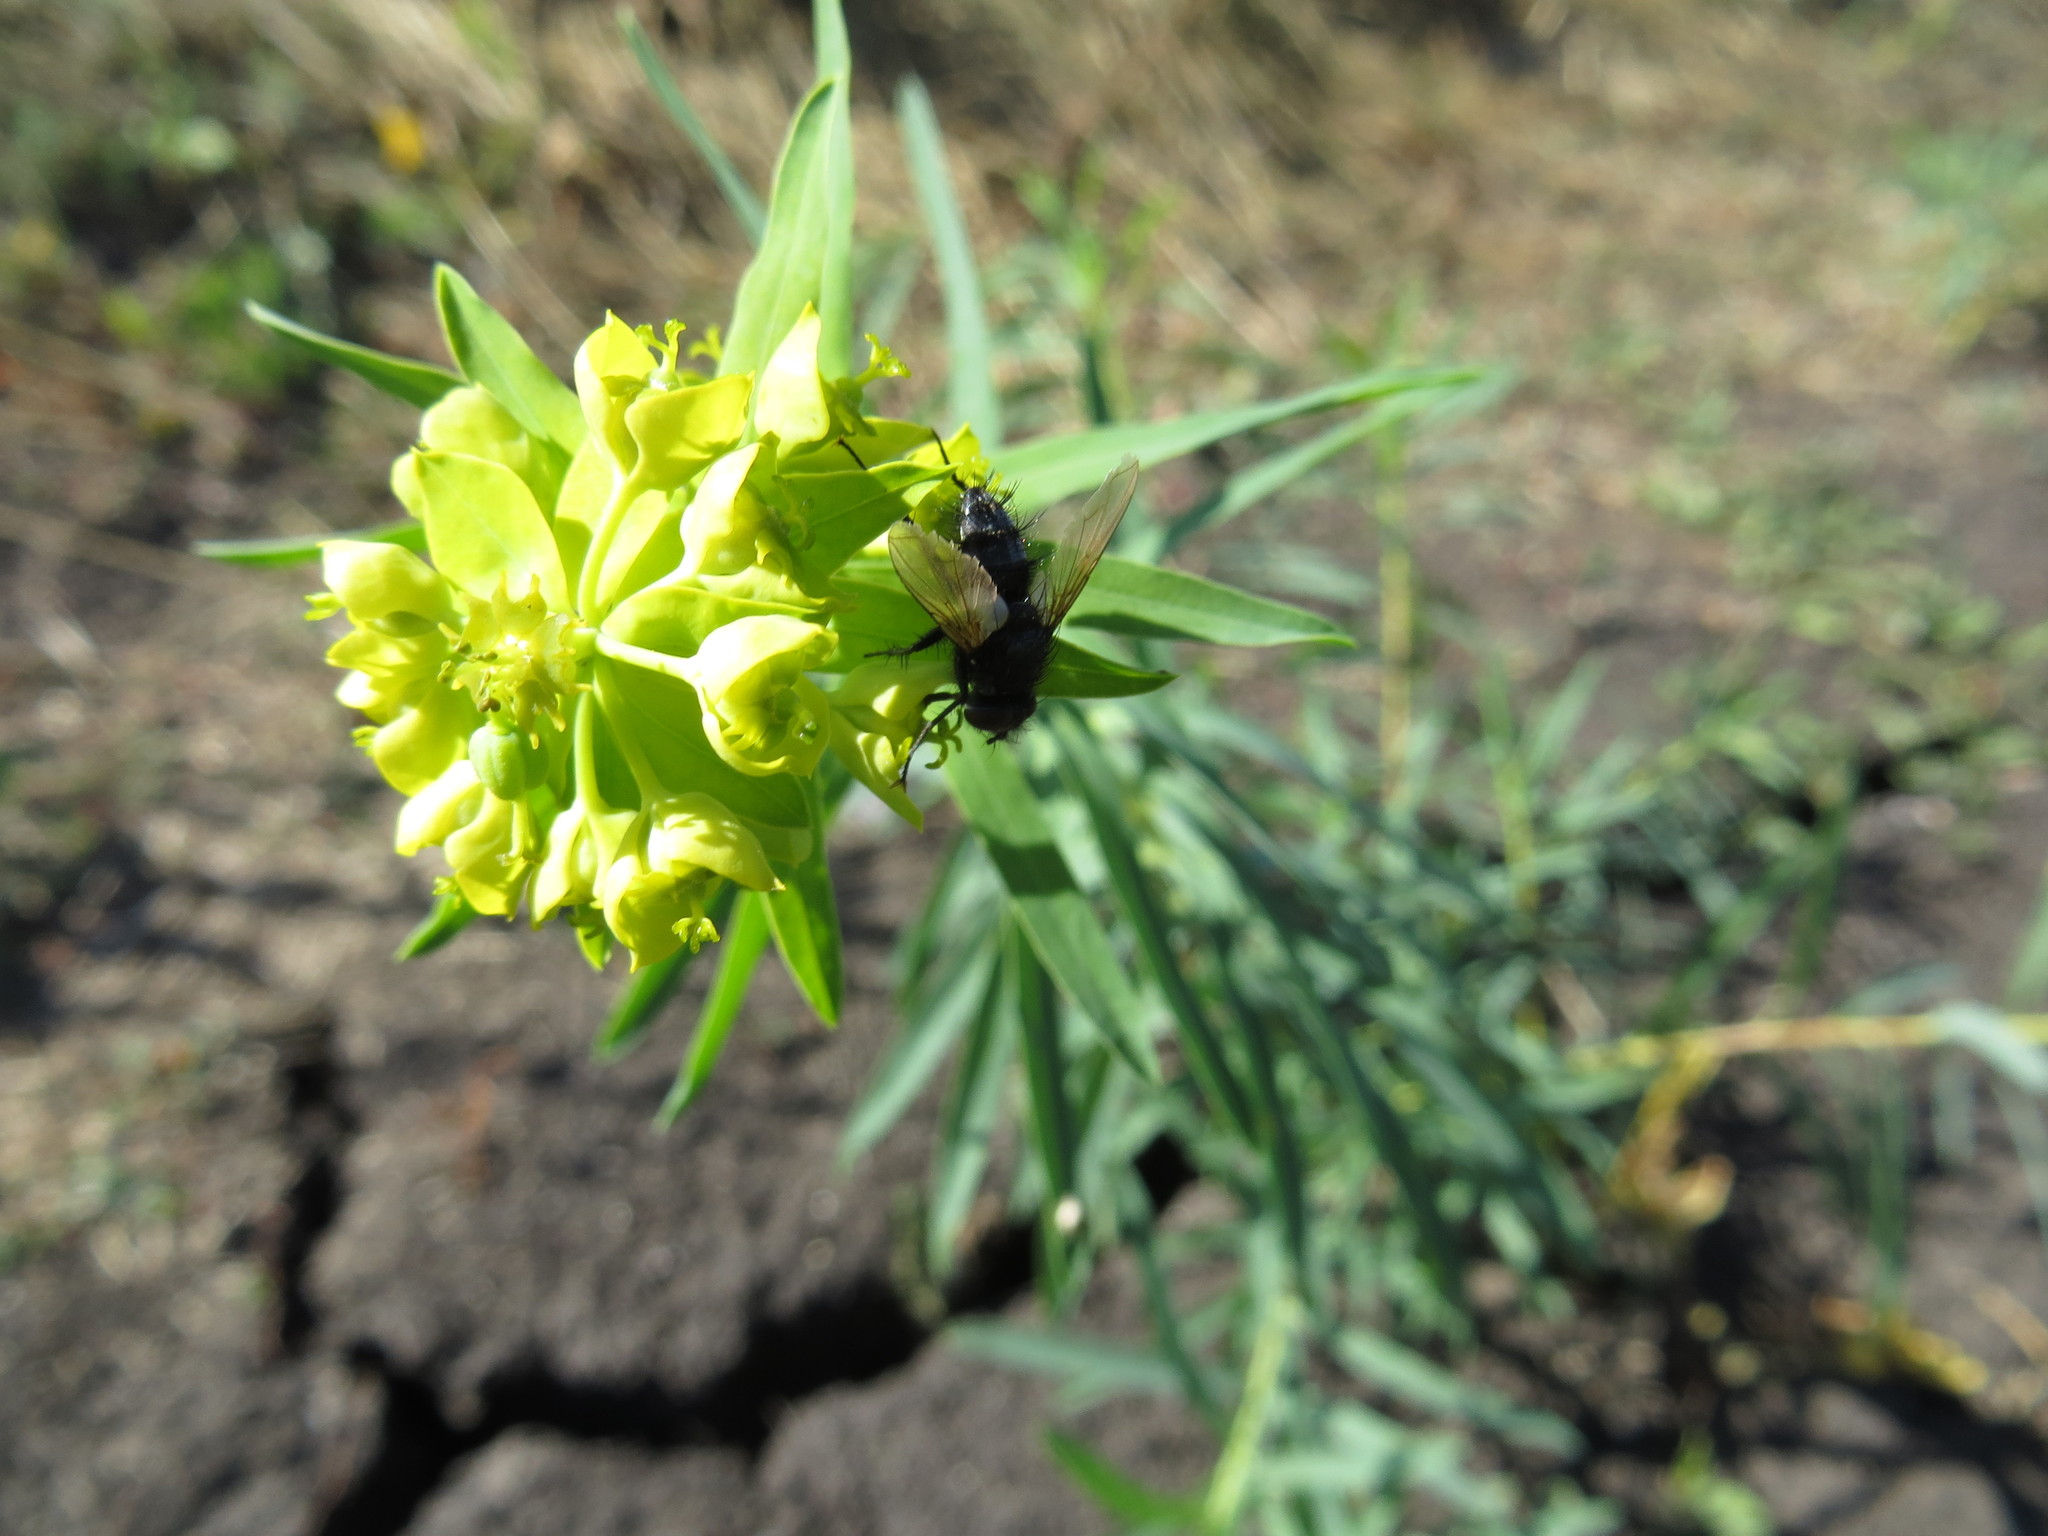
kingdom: Plantae
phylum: Tracheophyta
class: Magnoliopsida
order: Malpighiales
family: Euphorbiaceae
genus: Euphorbia
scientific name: Euphorbia virgata
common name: Leafy spurge
